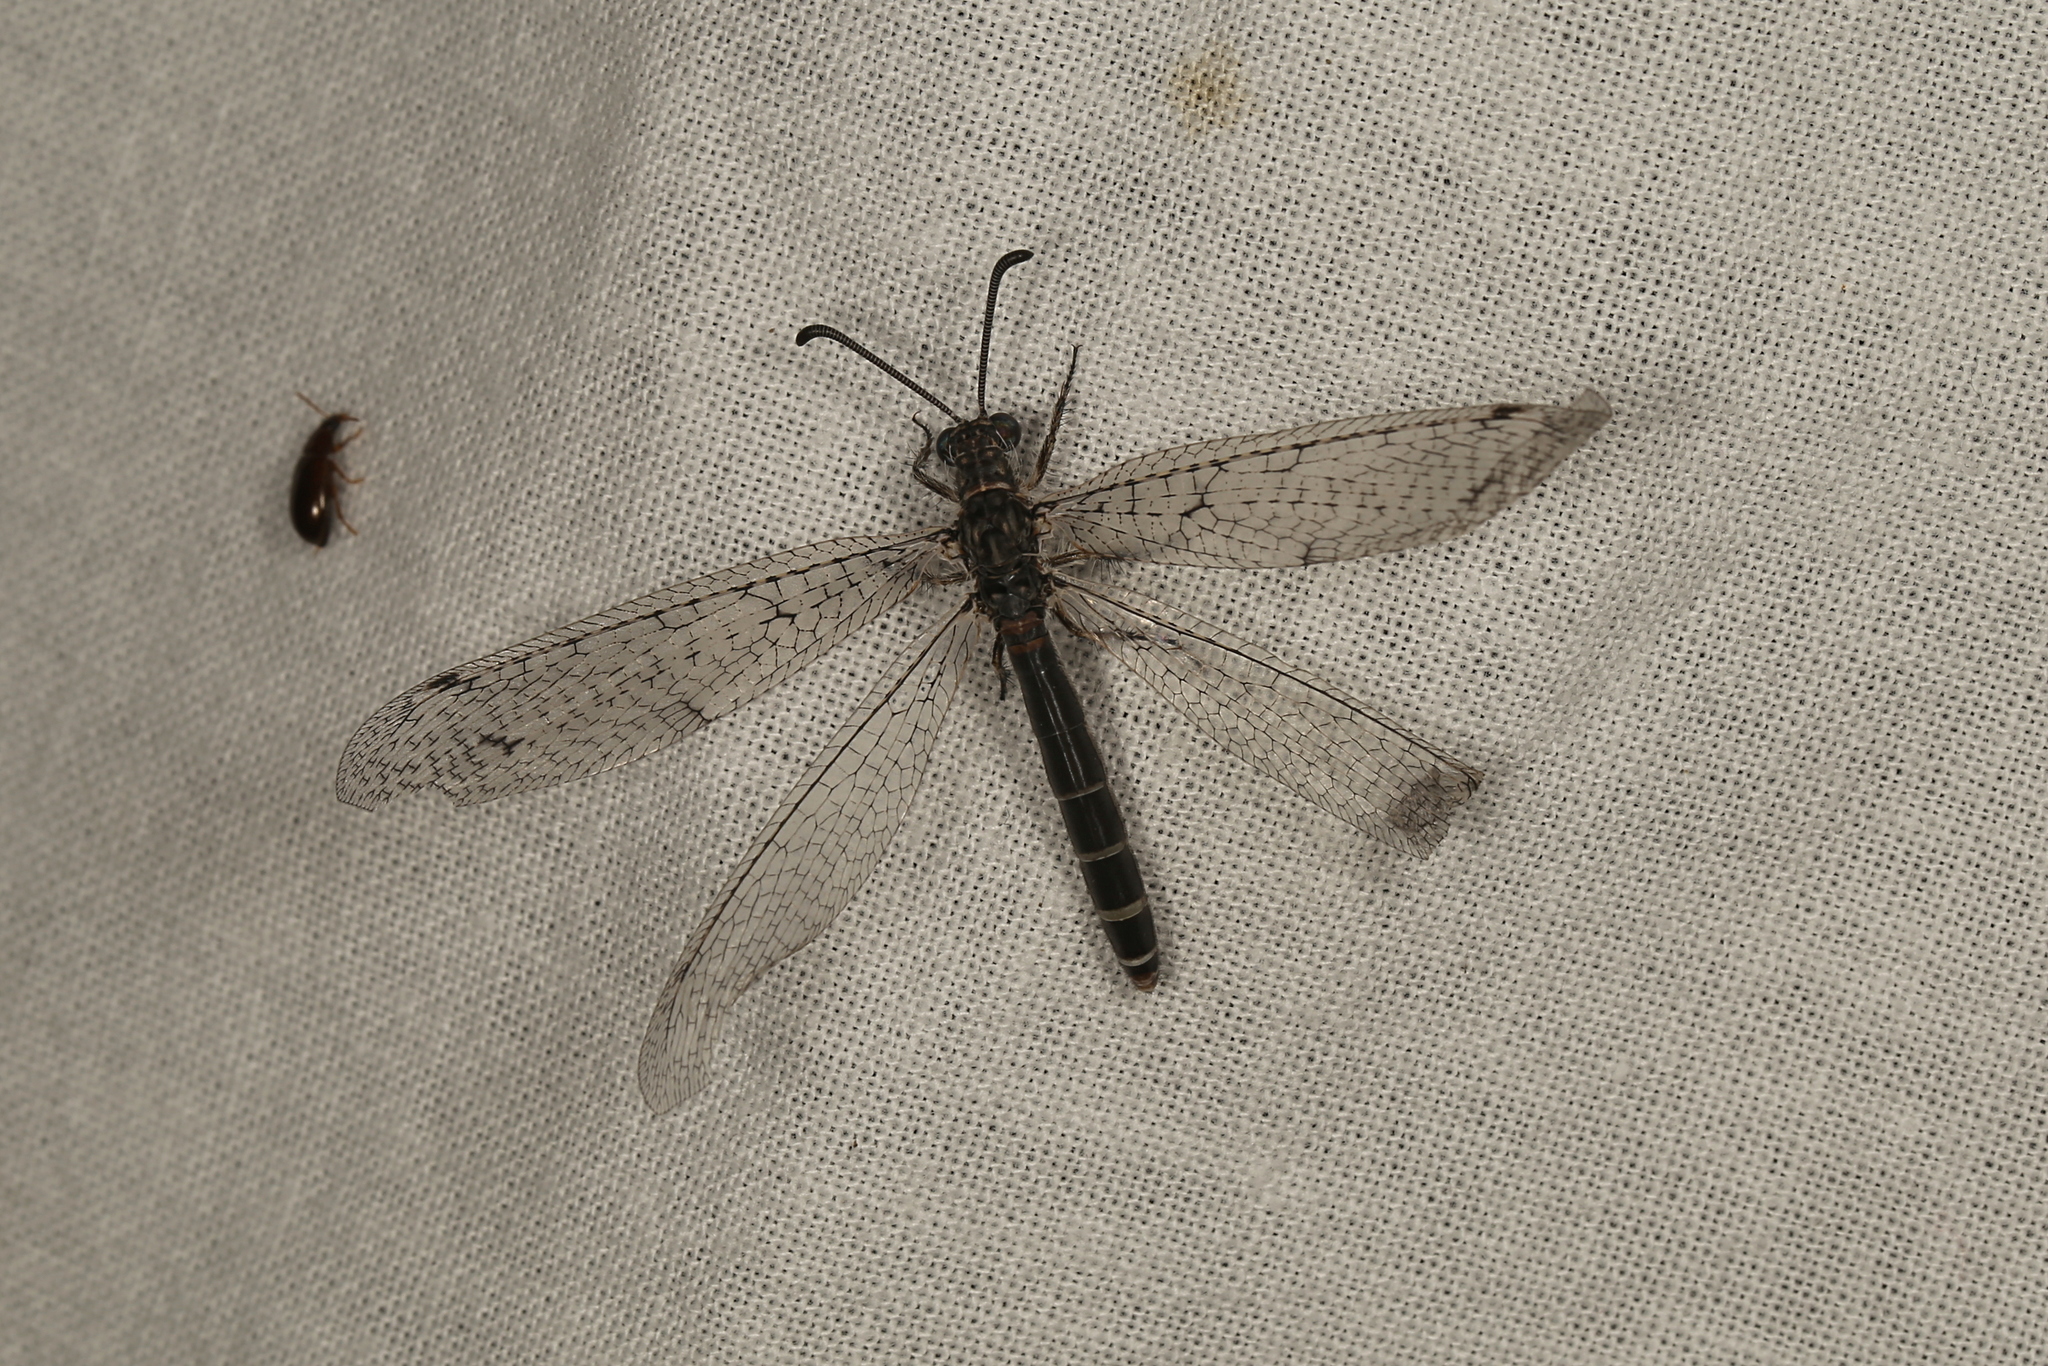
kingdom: Animalia
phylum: Arthropoda
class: Insecta
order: Neuroptera
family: Myrmeleontidae
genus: Distoplectron
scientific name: Distoplectron gerstaeckeri
